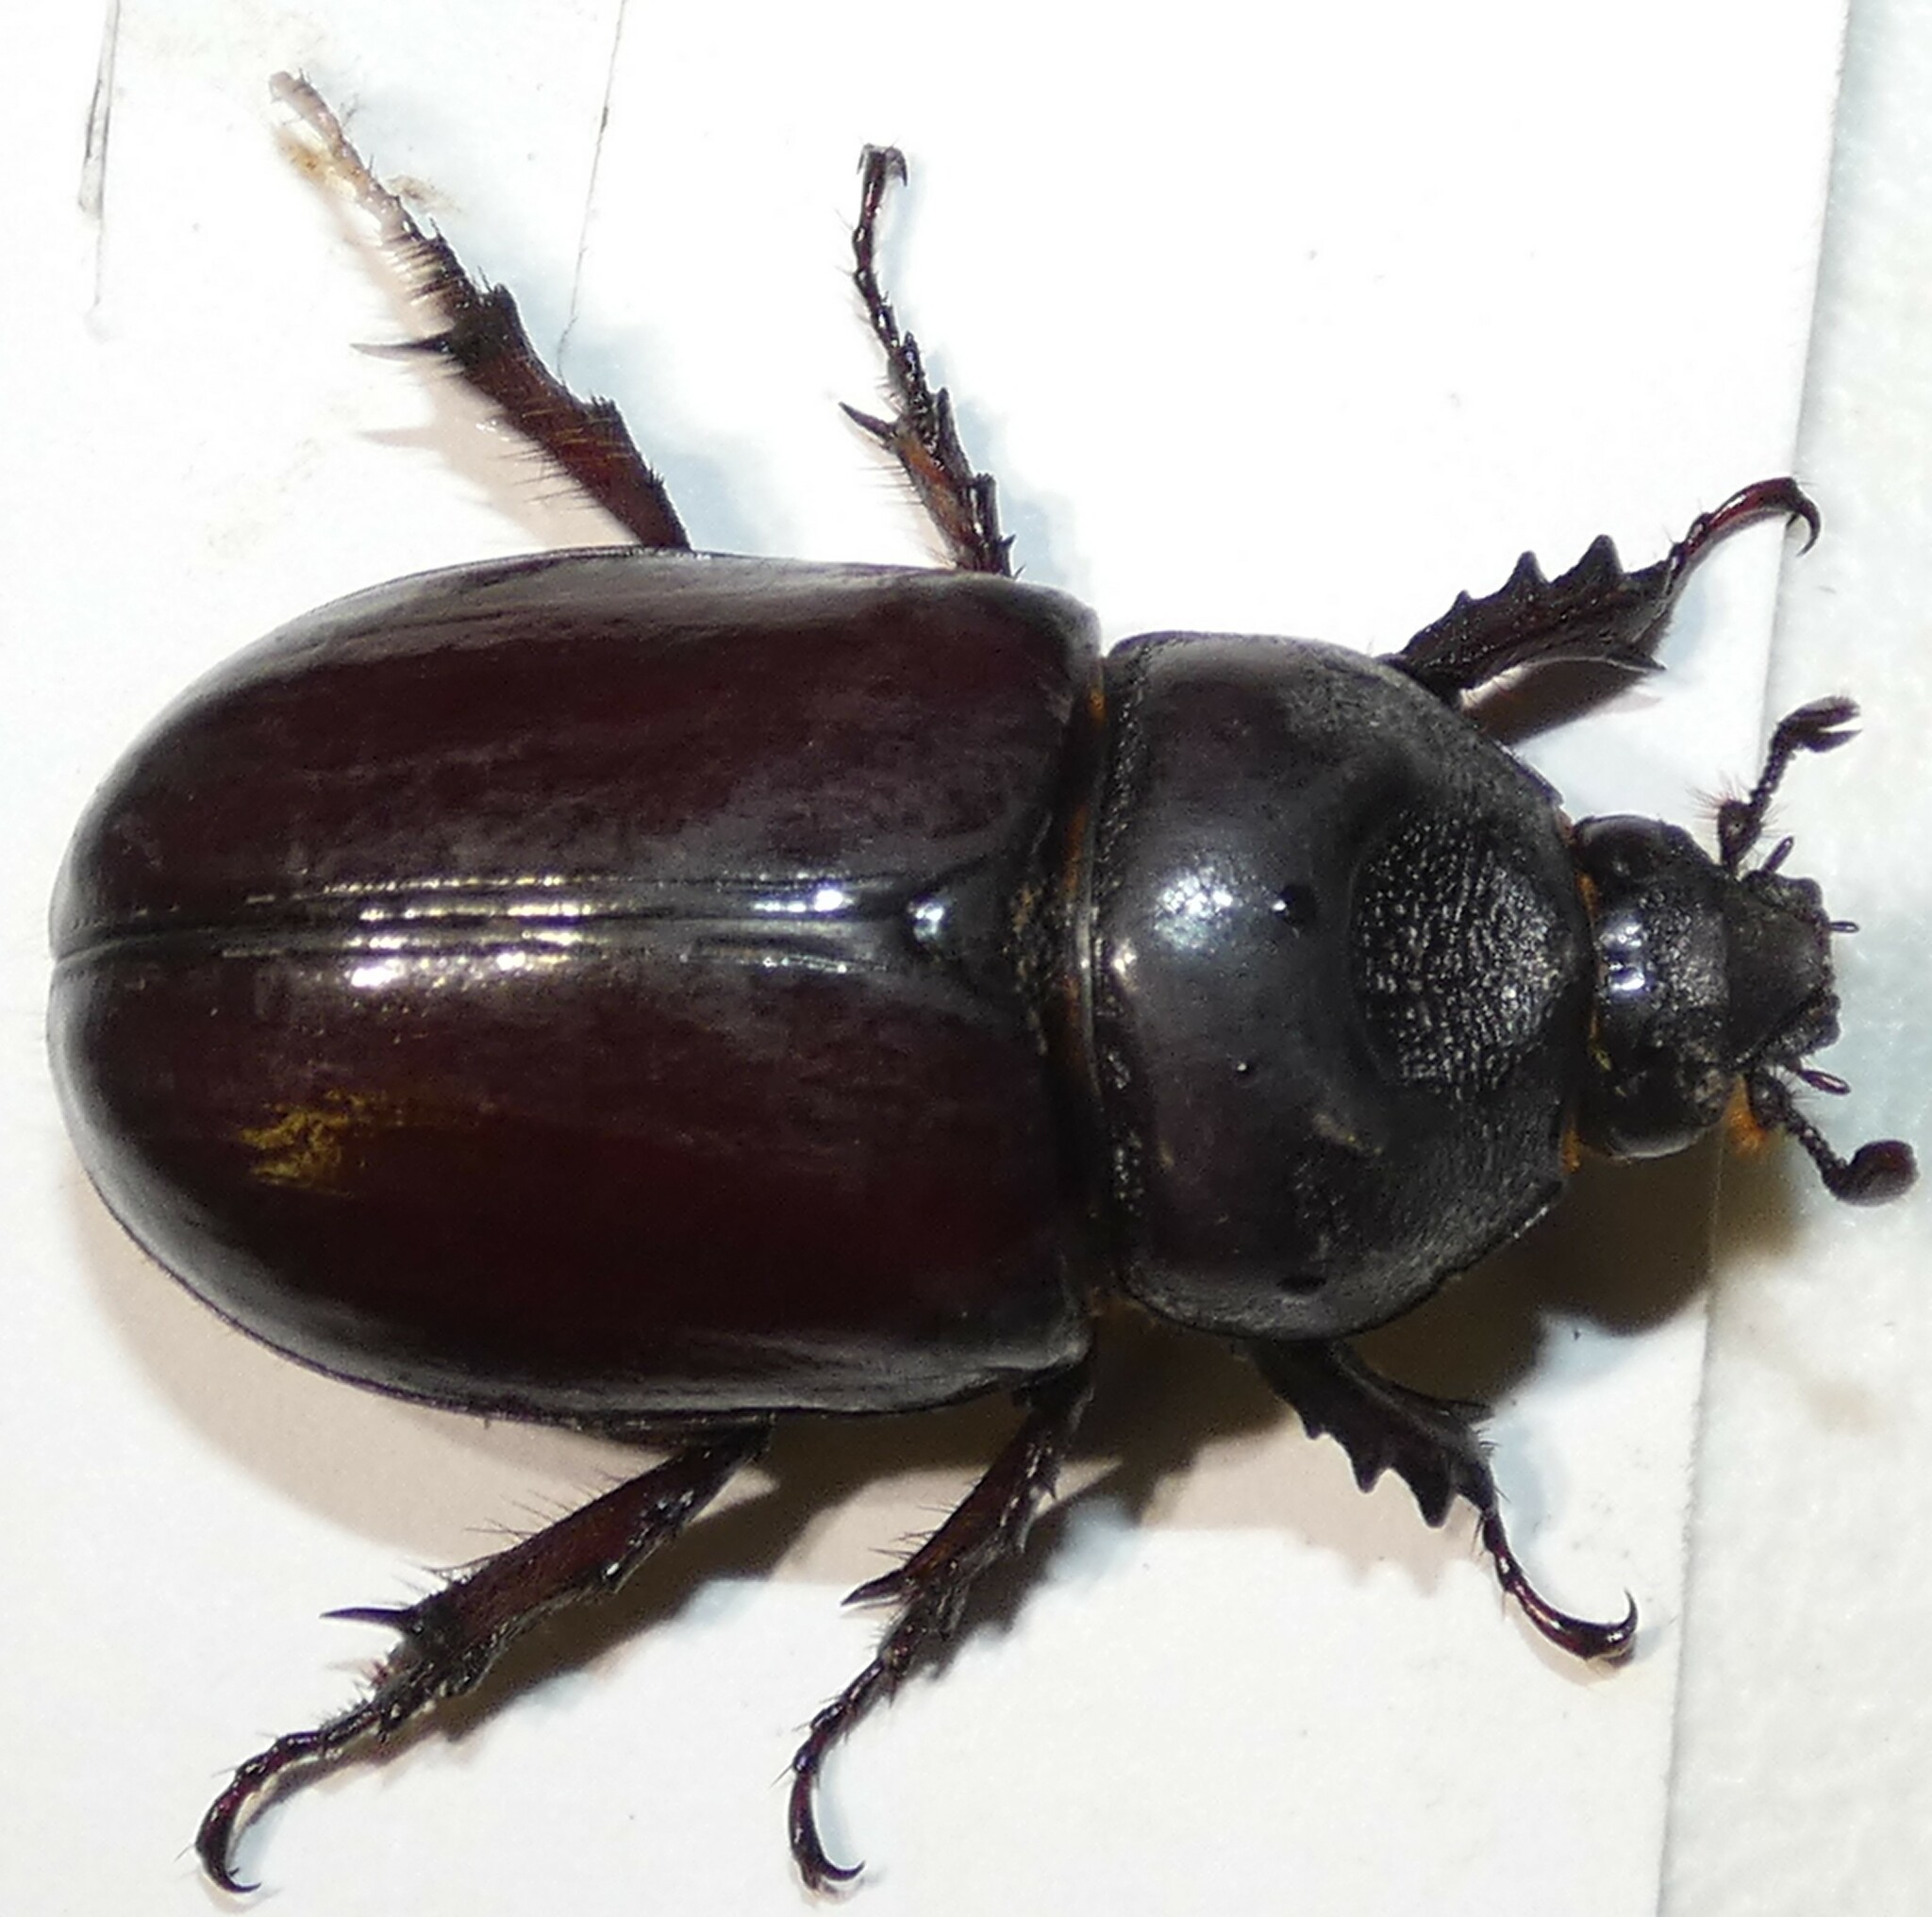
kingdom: Animalia
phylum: Arthropoda
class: Insecta
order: Coleoptera
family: Scarabaeidae
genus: Strategus
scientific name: Strategus aloeus
